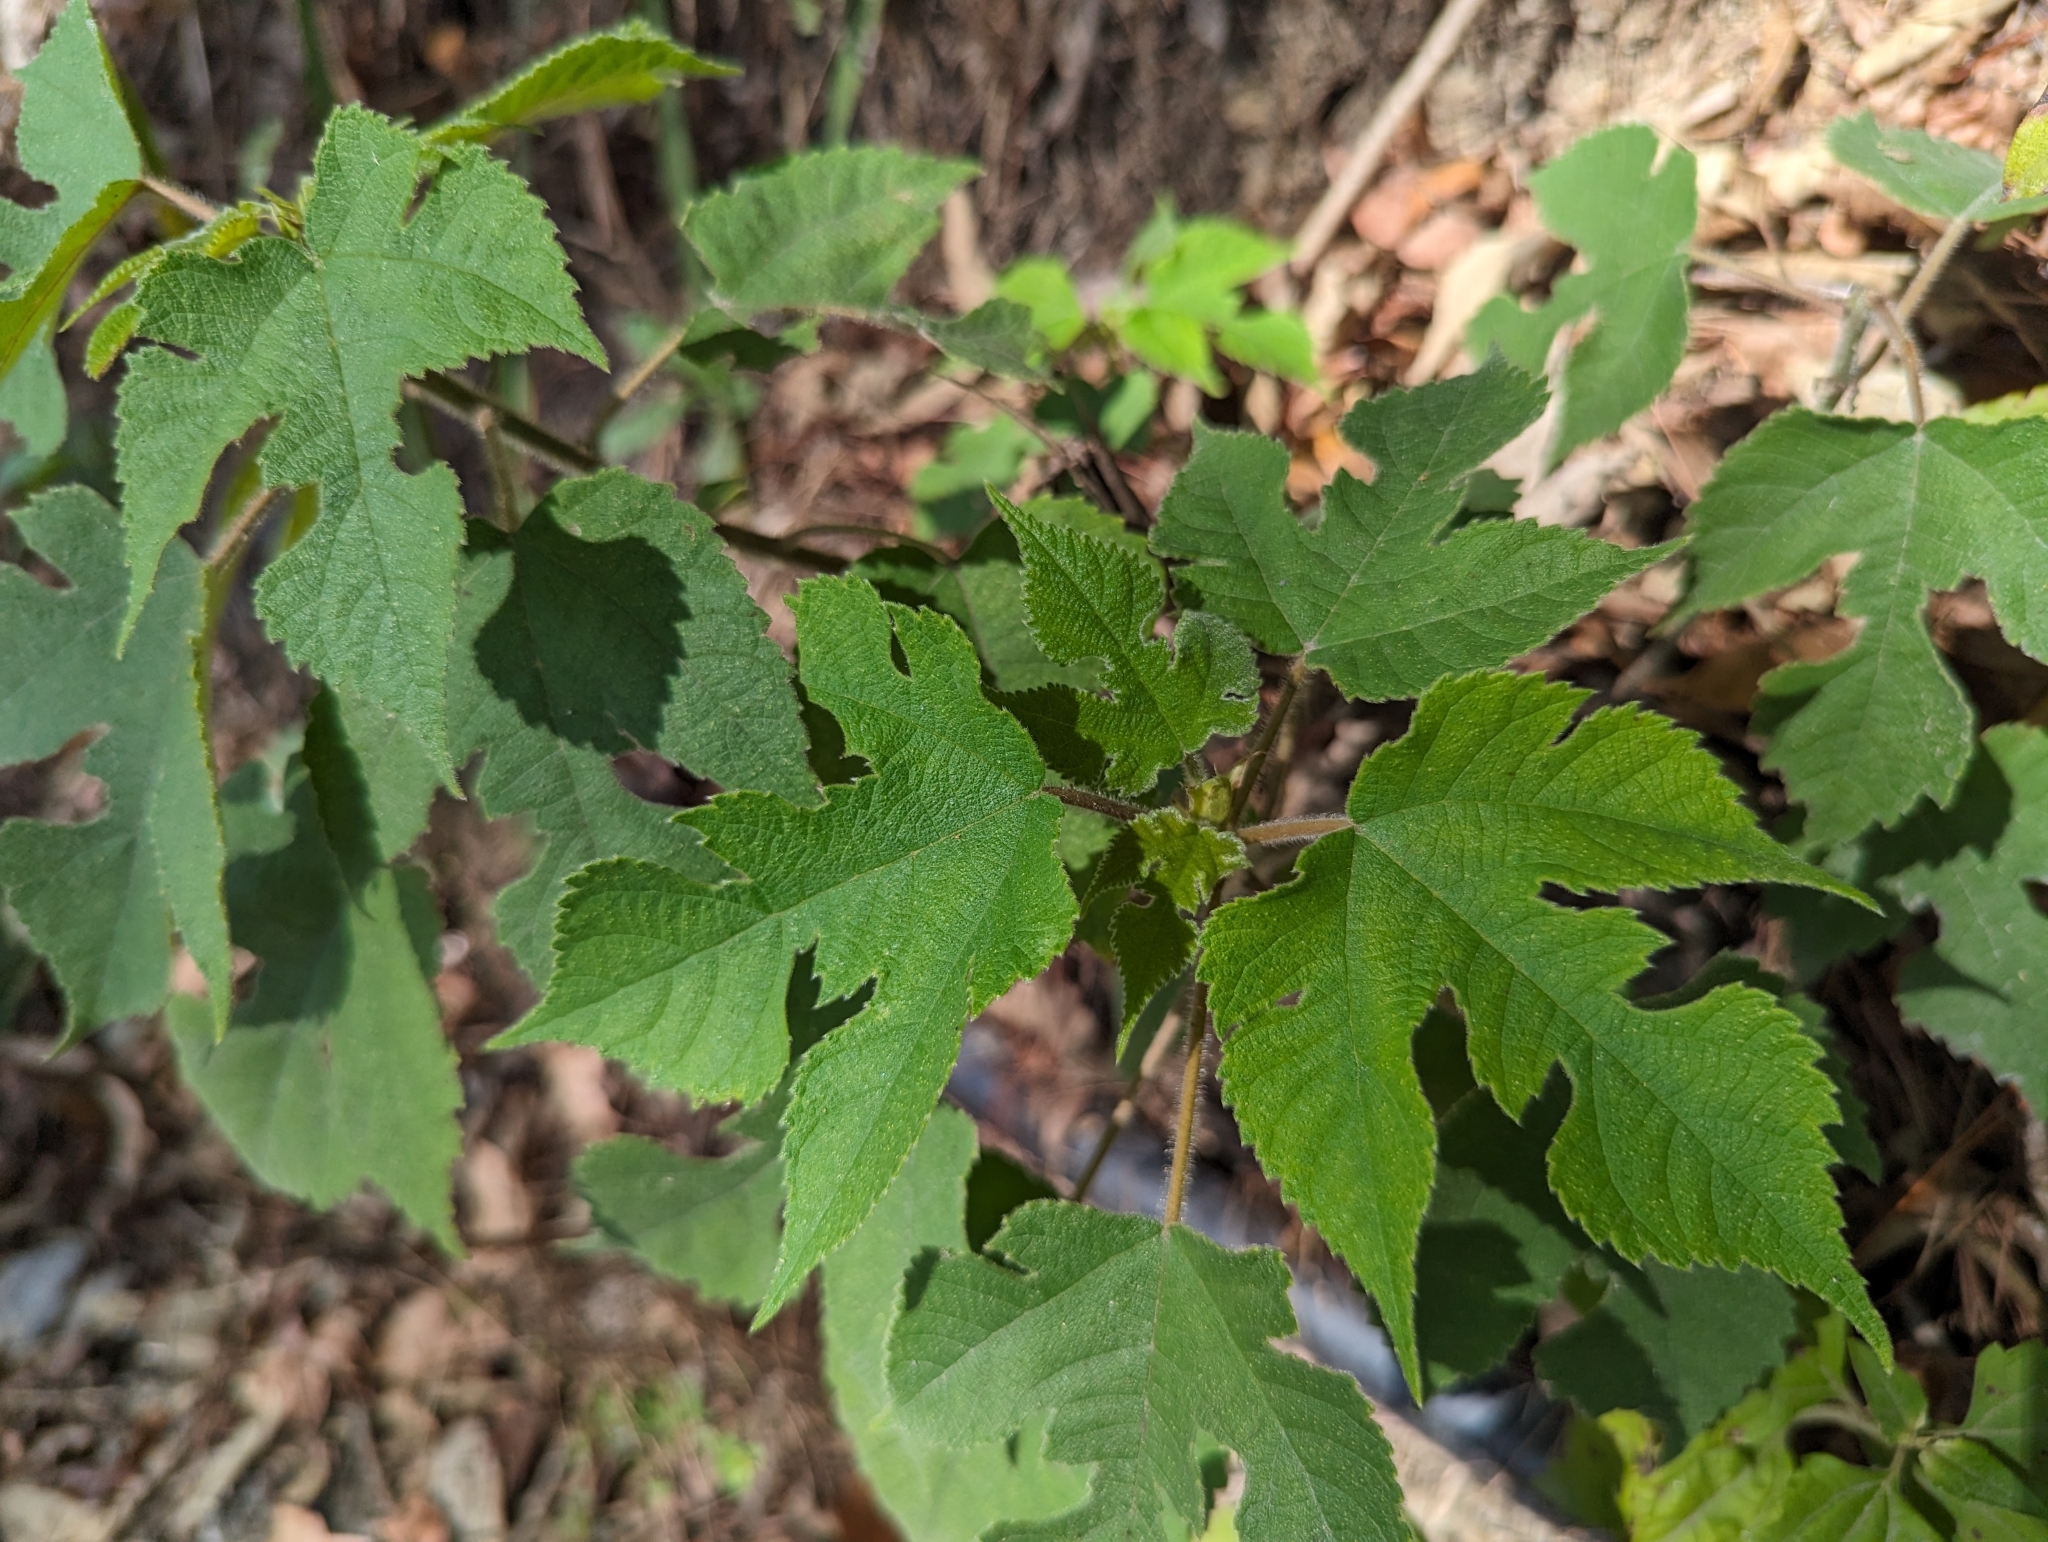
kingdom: Plantae
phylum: Tracheophyta
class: Magnoliopsida
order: Rosales
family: Moraceae
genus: Broussonetia
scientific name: Broussonetia papyrifera
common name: Paper mulberry
